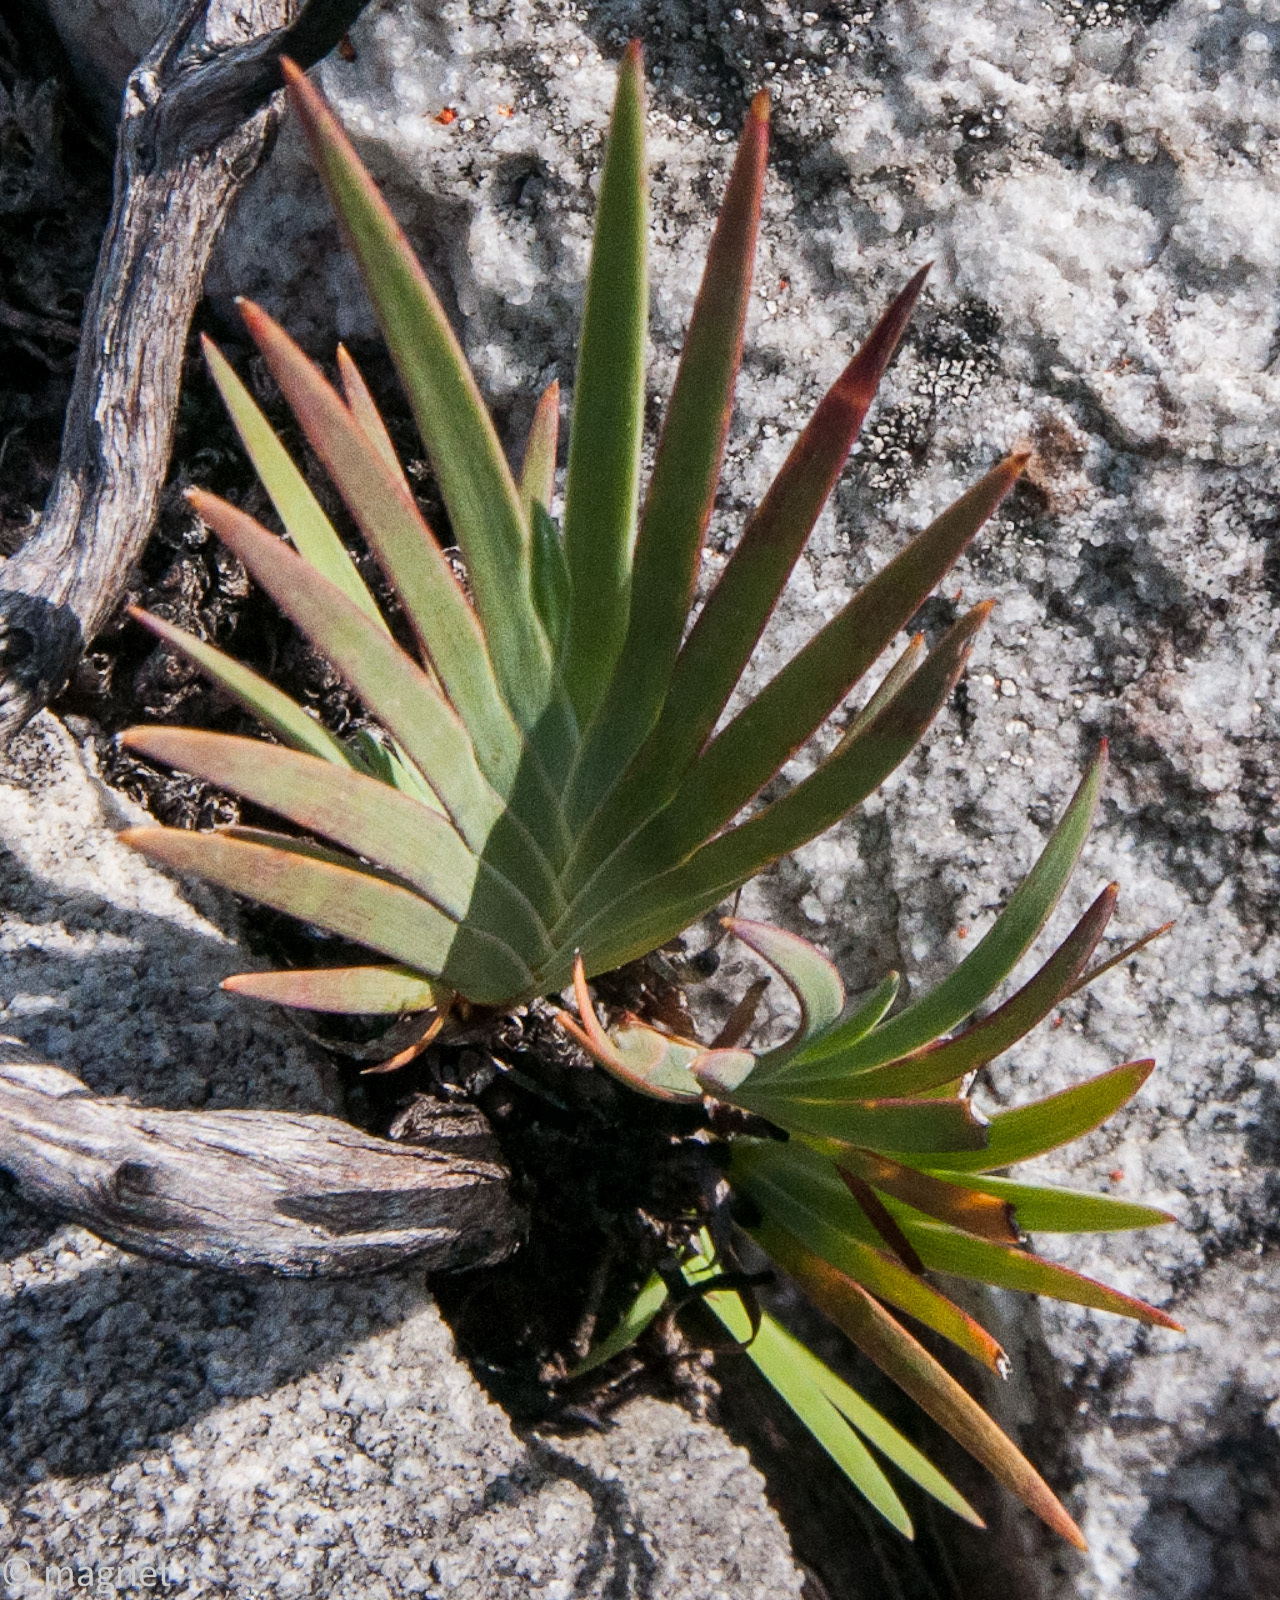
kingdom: Plantae
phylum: Tracheophyta
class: Liliopsida
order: Asparagales
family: Iridaceae
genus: Nivenia
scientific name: Nivenia levynsiae
